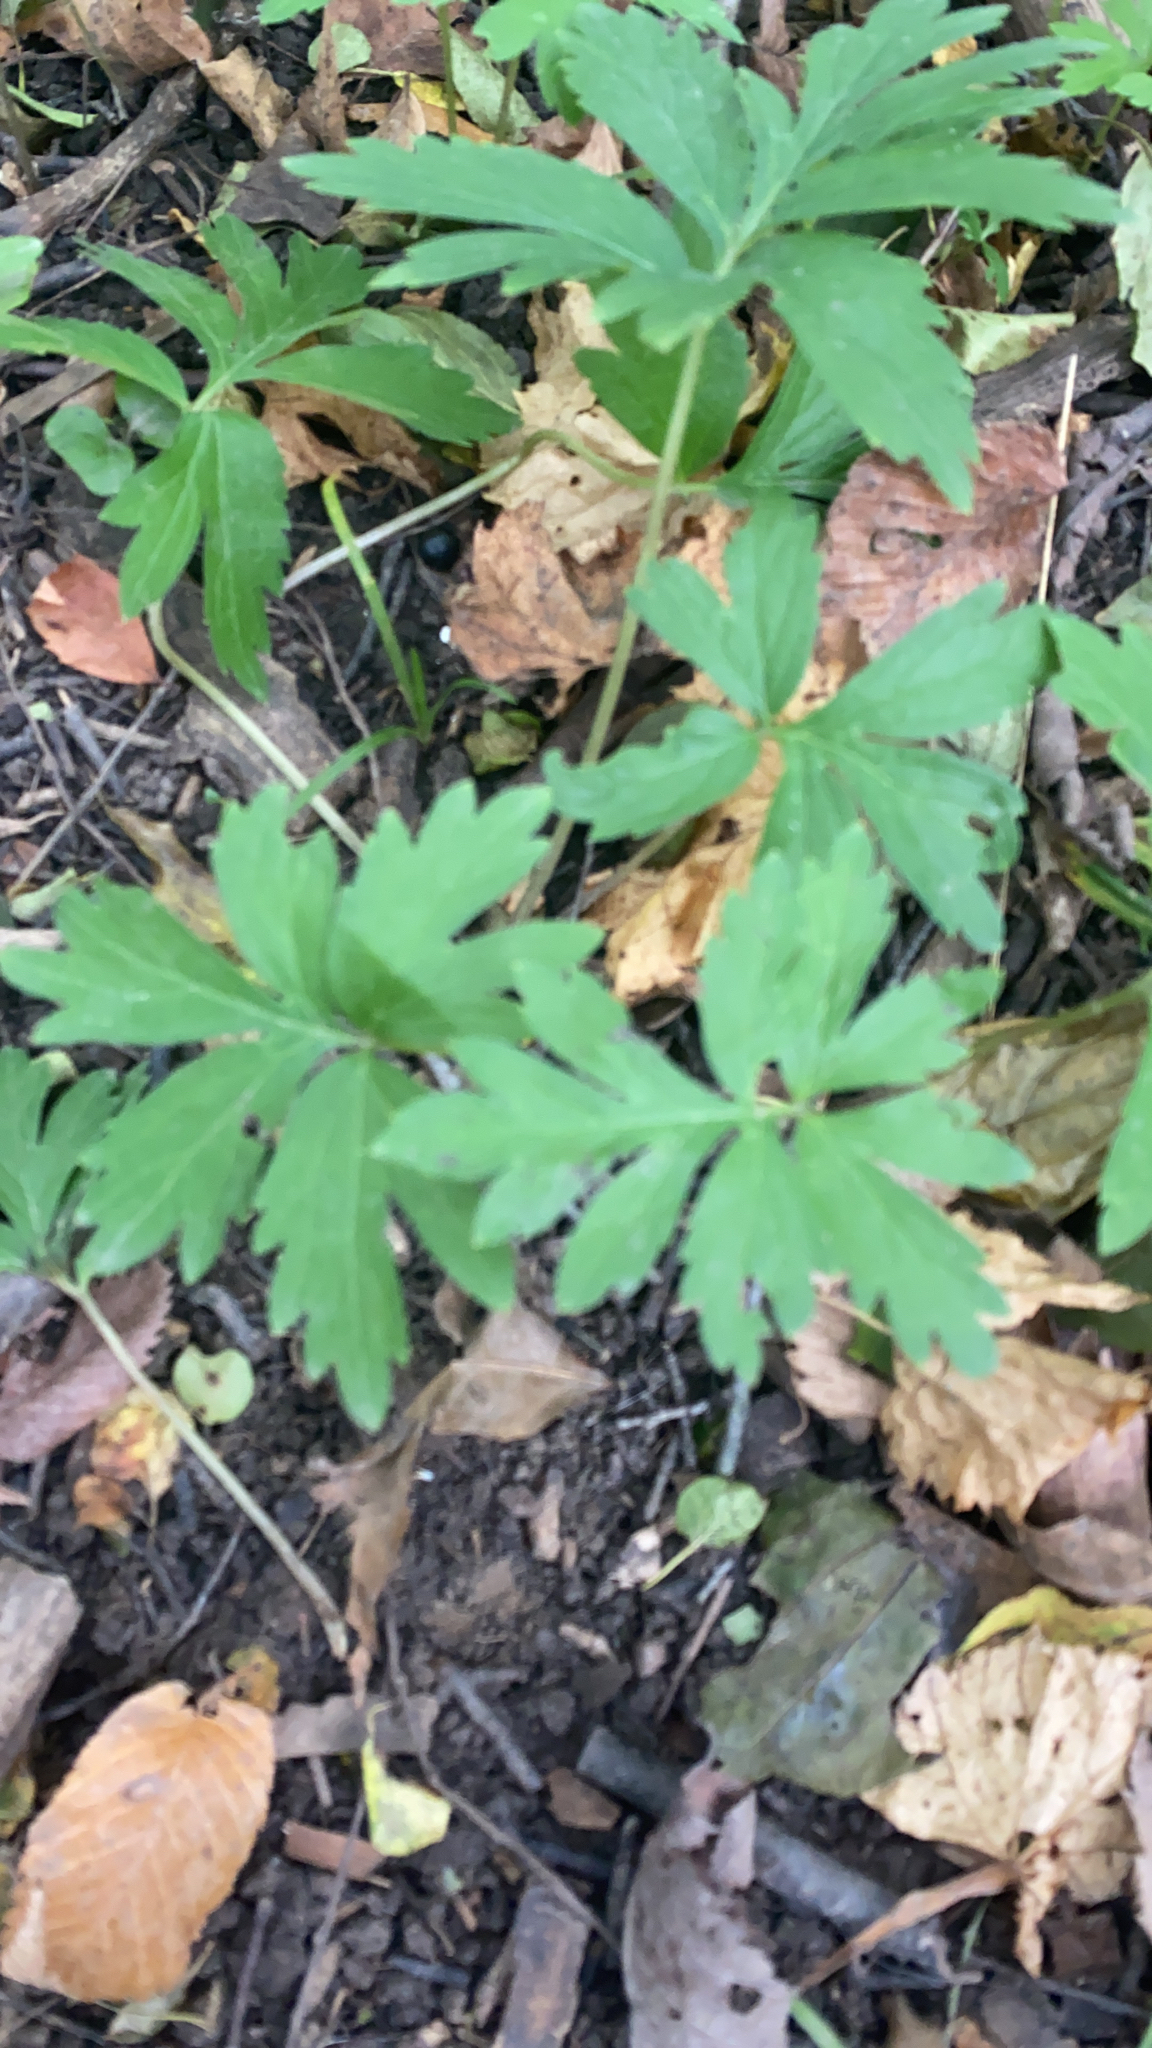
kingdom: Plantae
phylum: Tracheophyta
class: Magnoliopsida
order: Boraginales
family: Hydrophyllaceae
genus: Hydrophyllum
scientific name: Hydrophyllum virginianum
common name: Virginia waterleaf
